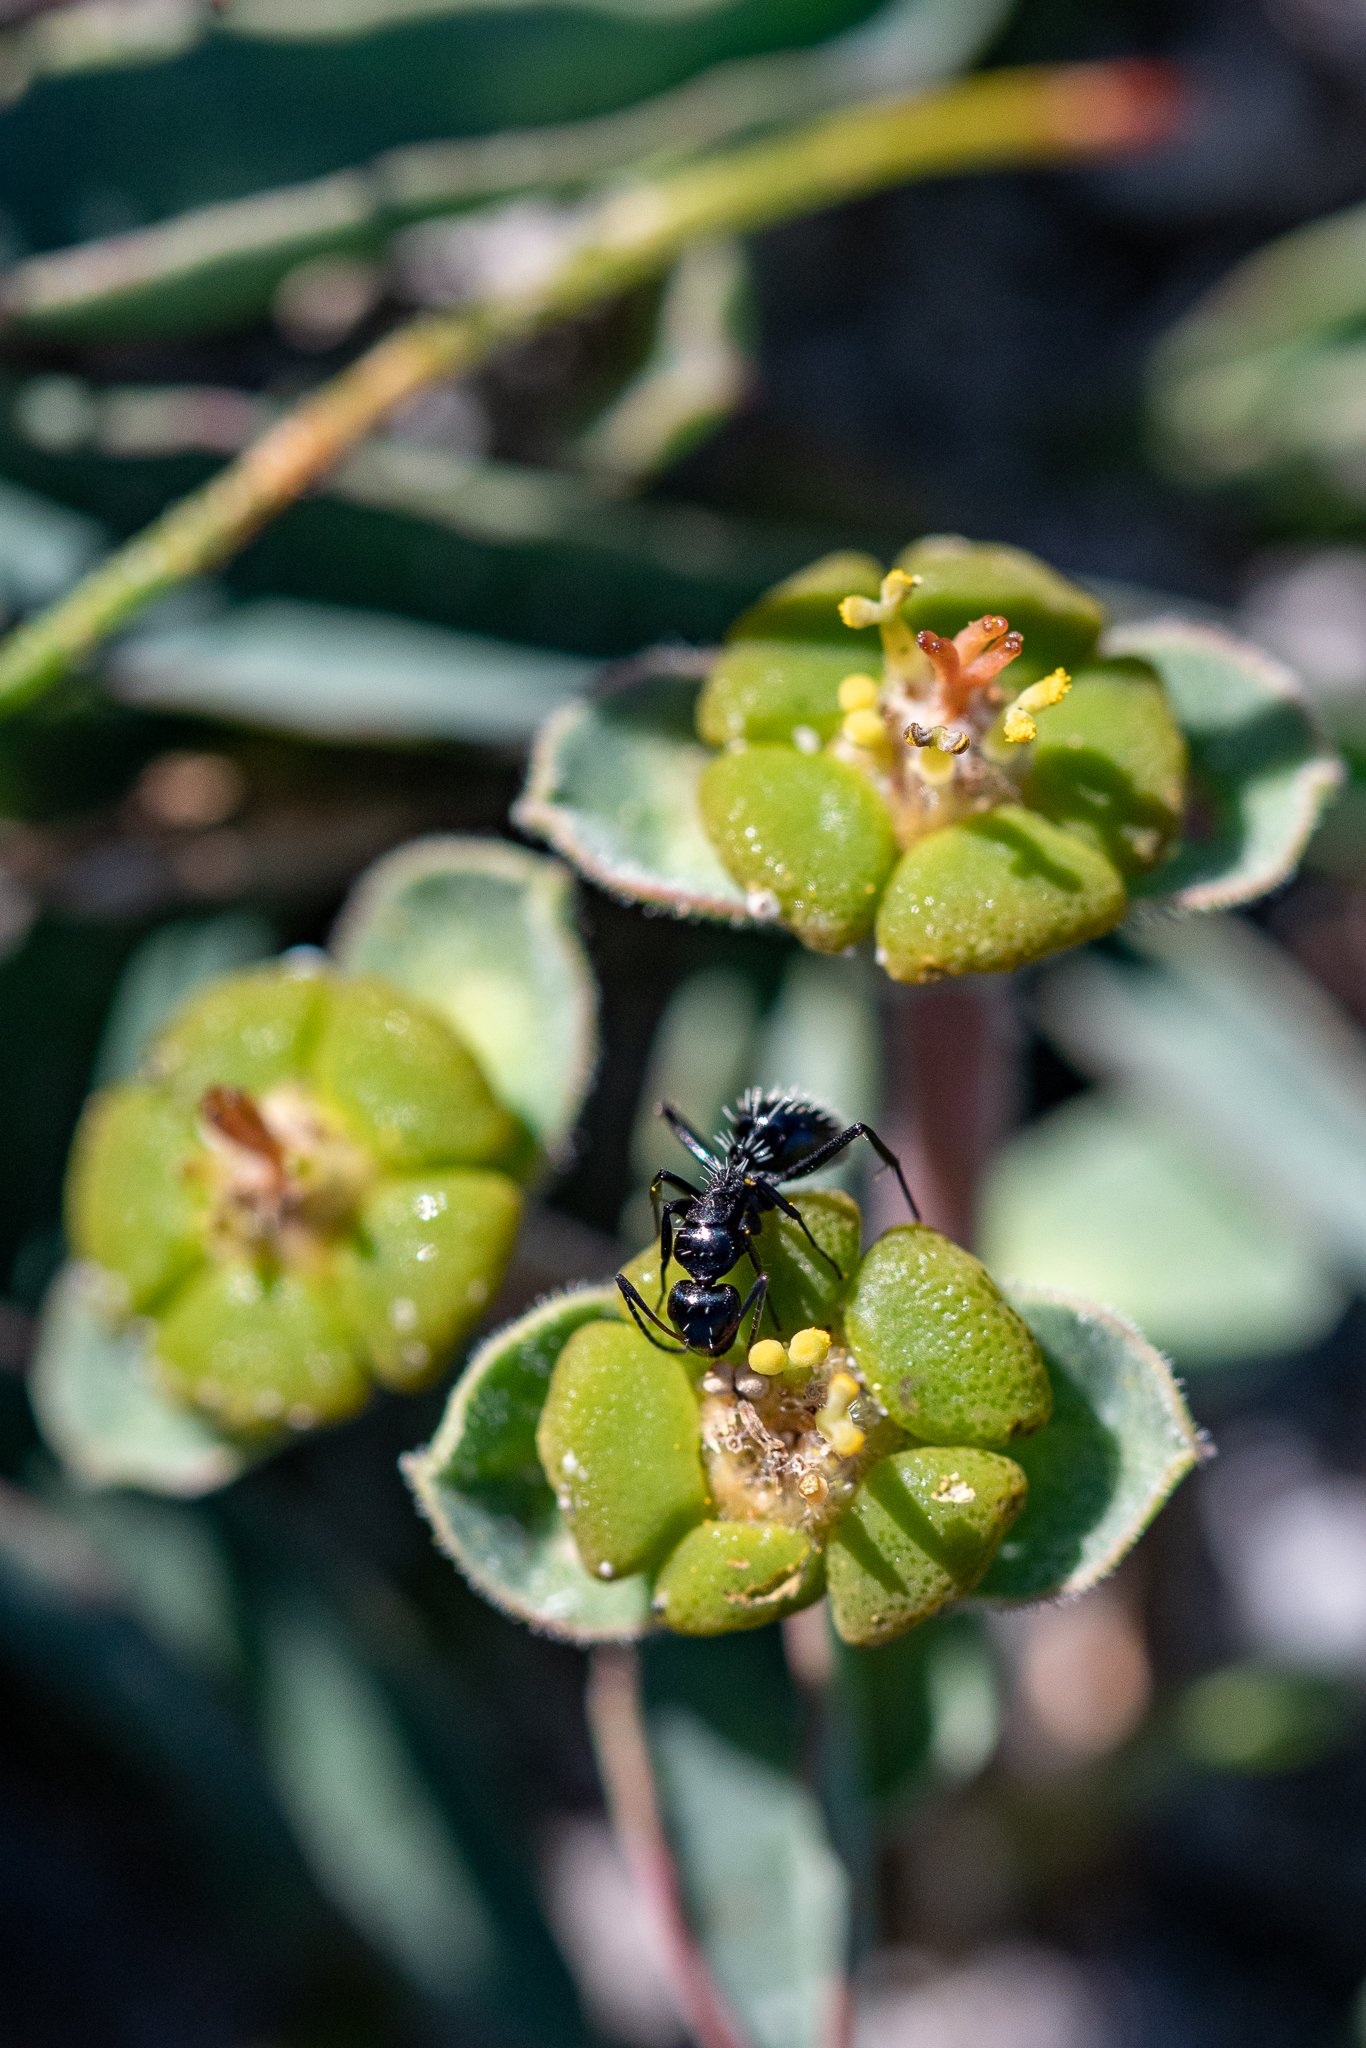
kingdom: Plantae
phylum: Tracheophyta
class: Magnoliopsida
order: Malpighiales
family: Euphorbiaceae
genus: Euphorbia
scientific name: Euphorbia tuberosa
